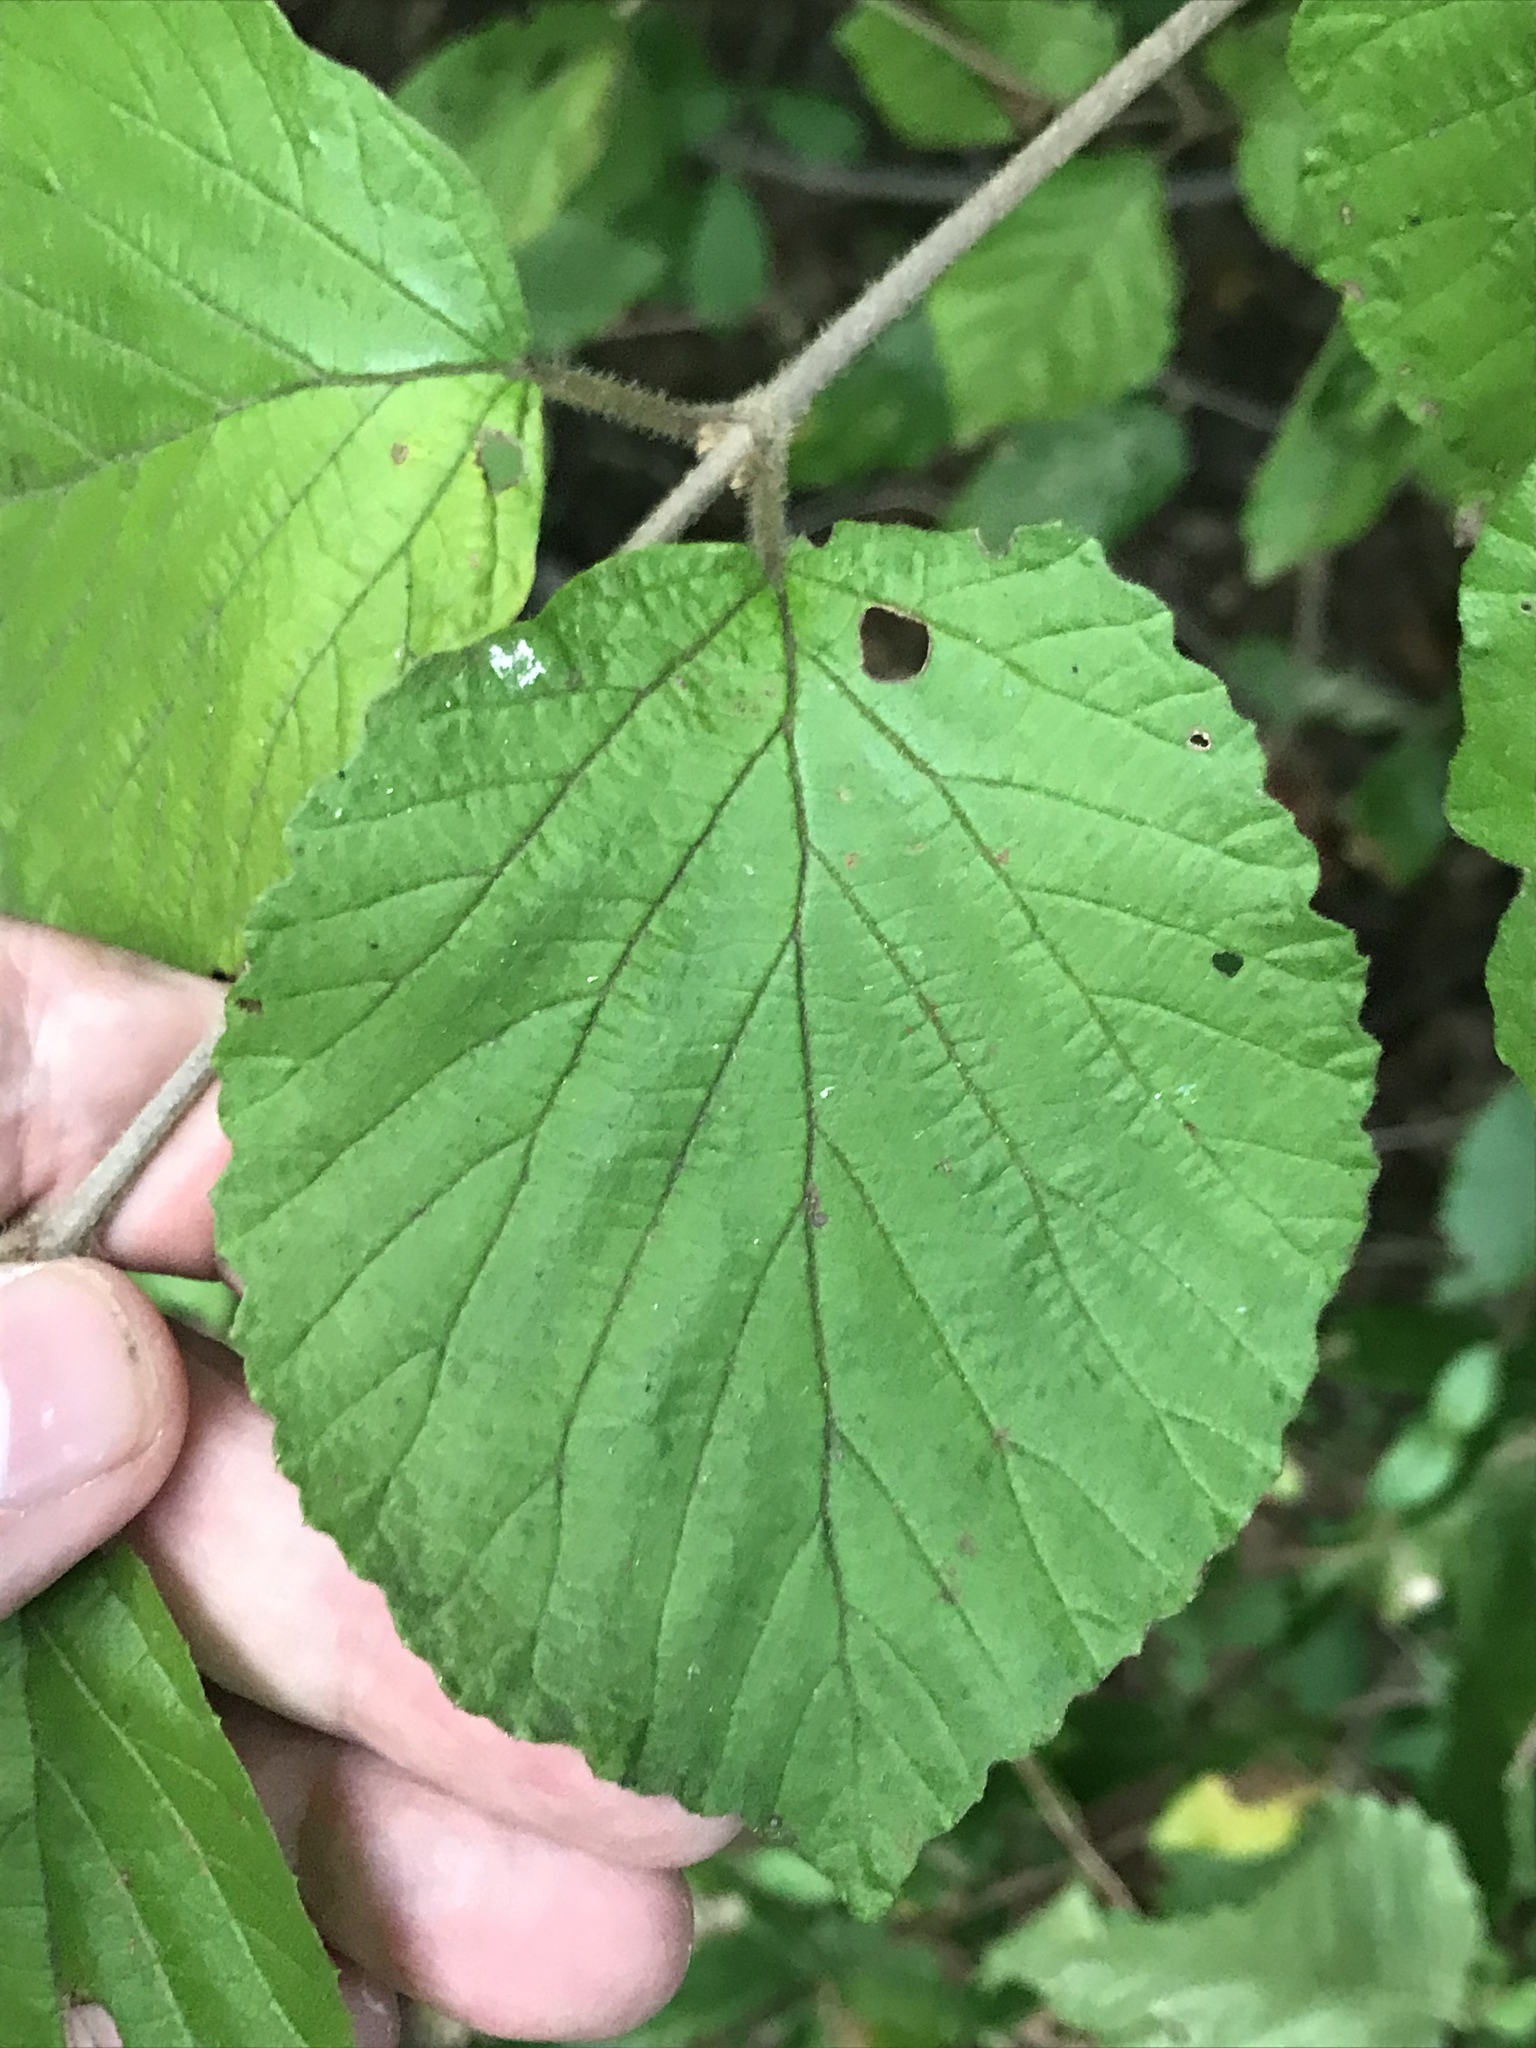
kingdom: Plantae
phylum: Tracheophyta
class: Magnoliopsida
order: Dipsacales
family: Viburnaceae
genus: Viburnum
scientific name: Viburnum dilatatum
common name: Linden arrowwood
